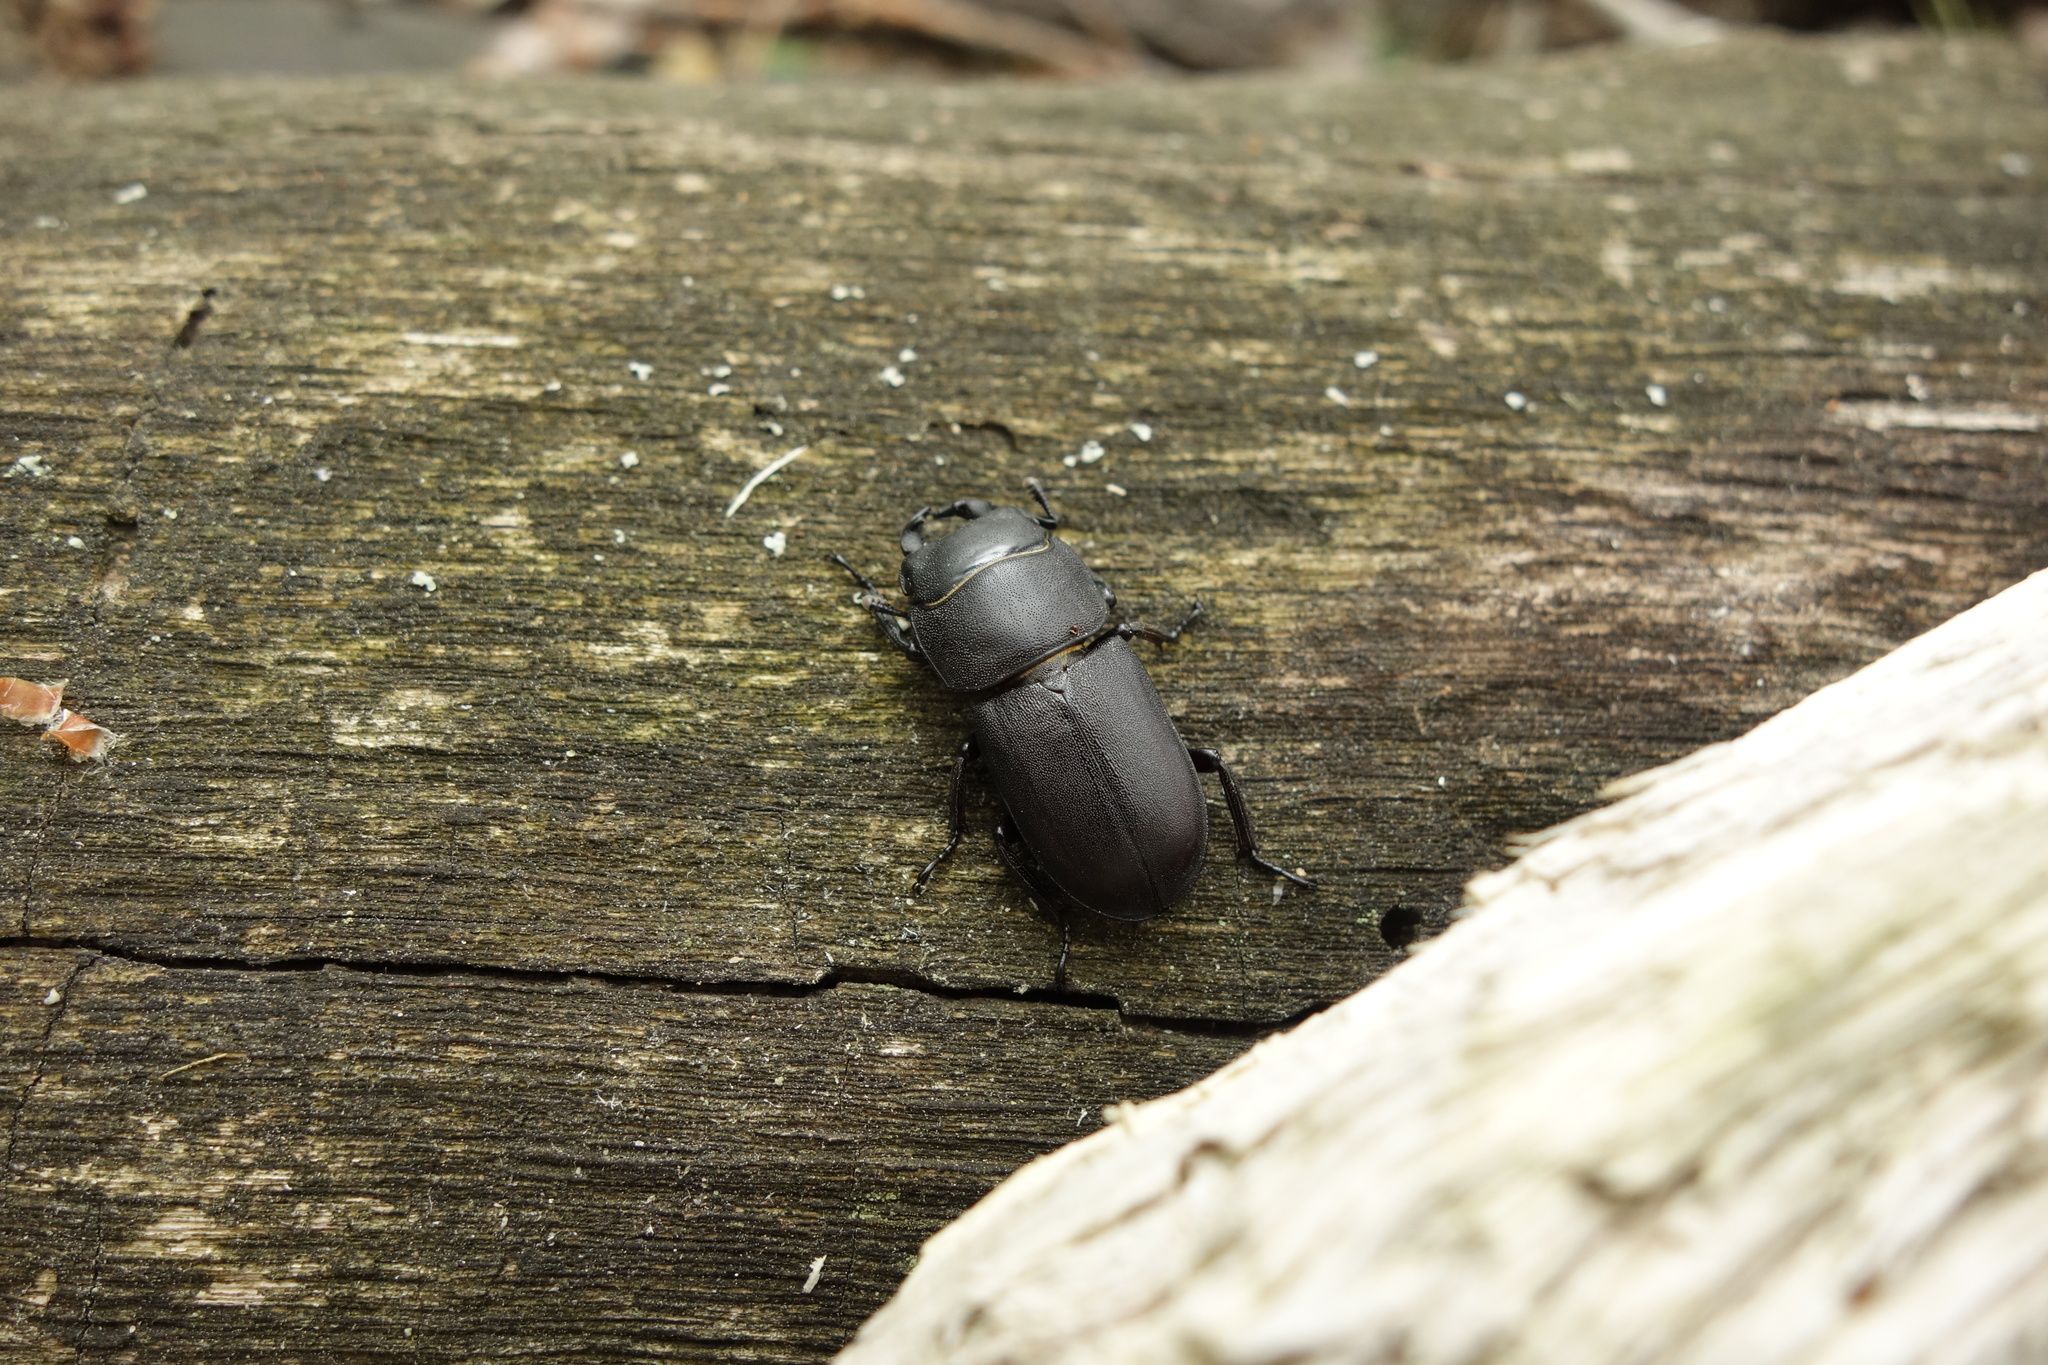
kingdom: Animalia
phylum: Arthropoda
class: Insecta
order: Coleoptera
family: Lucanidae
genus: Dorcus
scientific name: Dorcus parallelipipedus
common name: Lesser stag beetle
